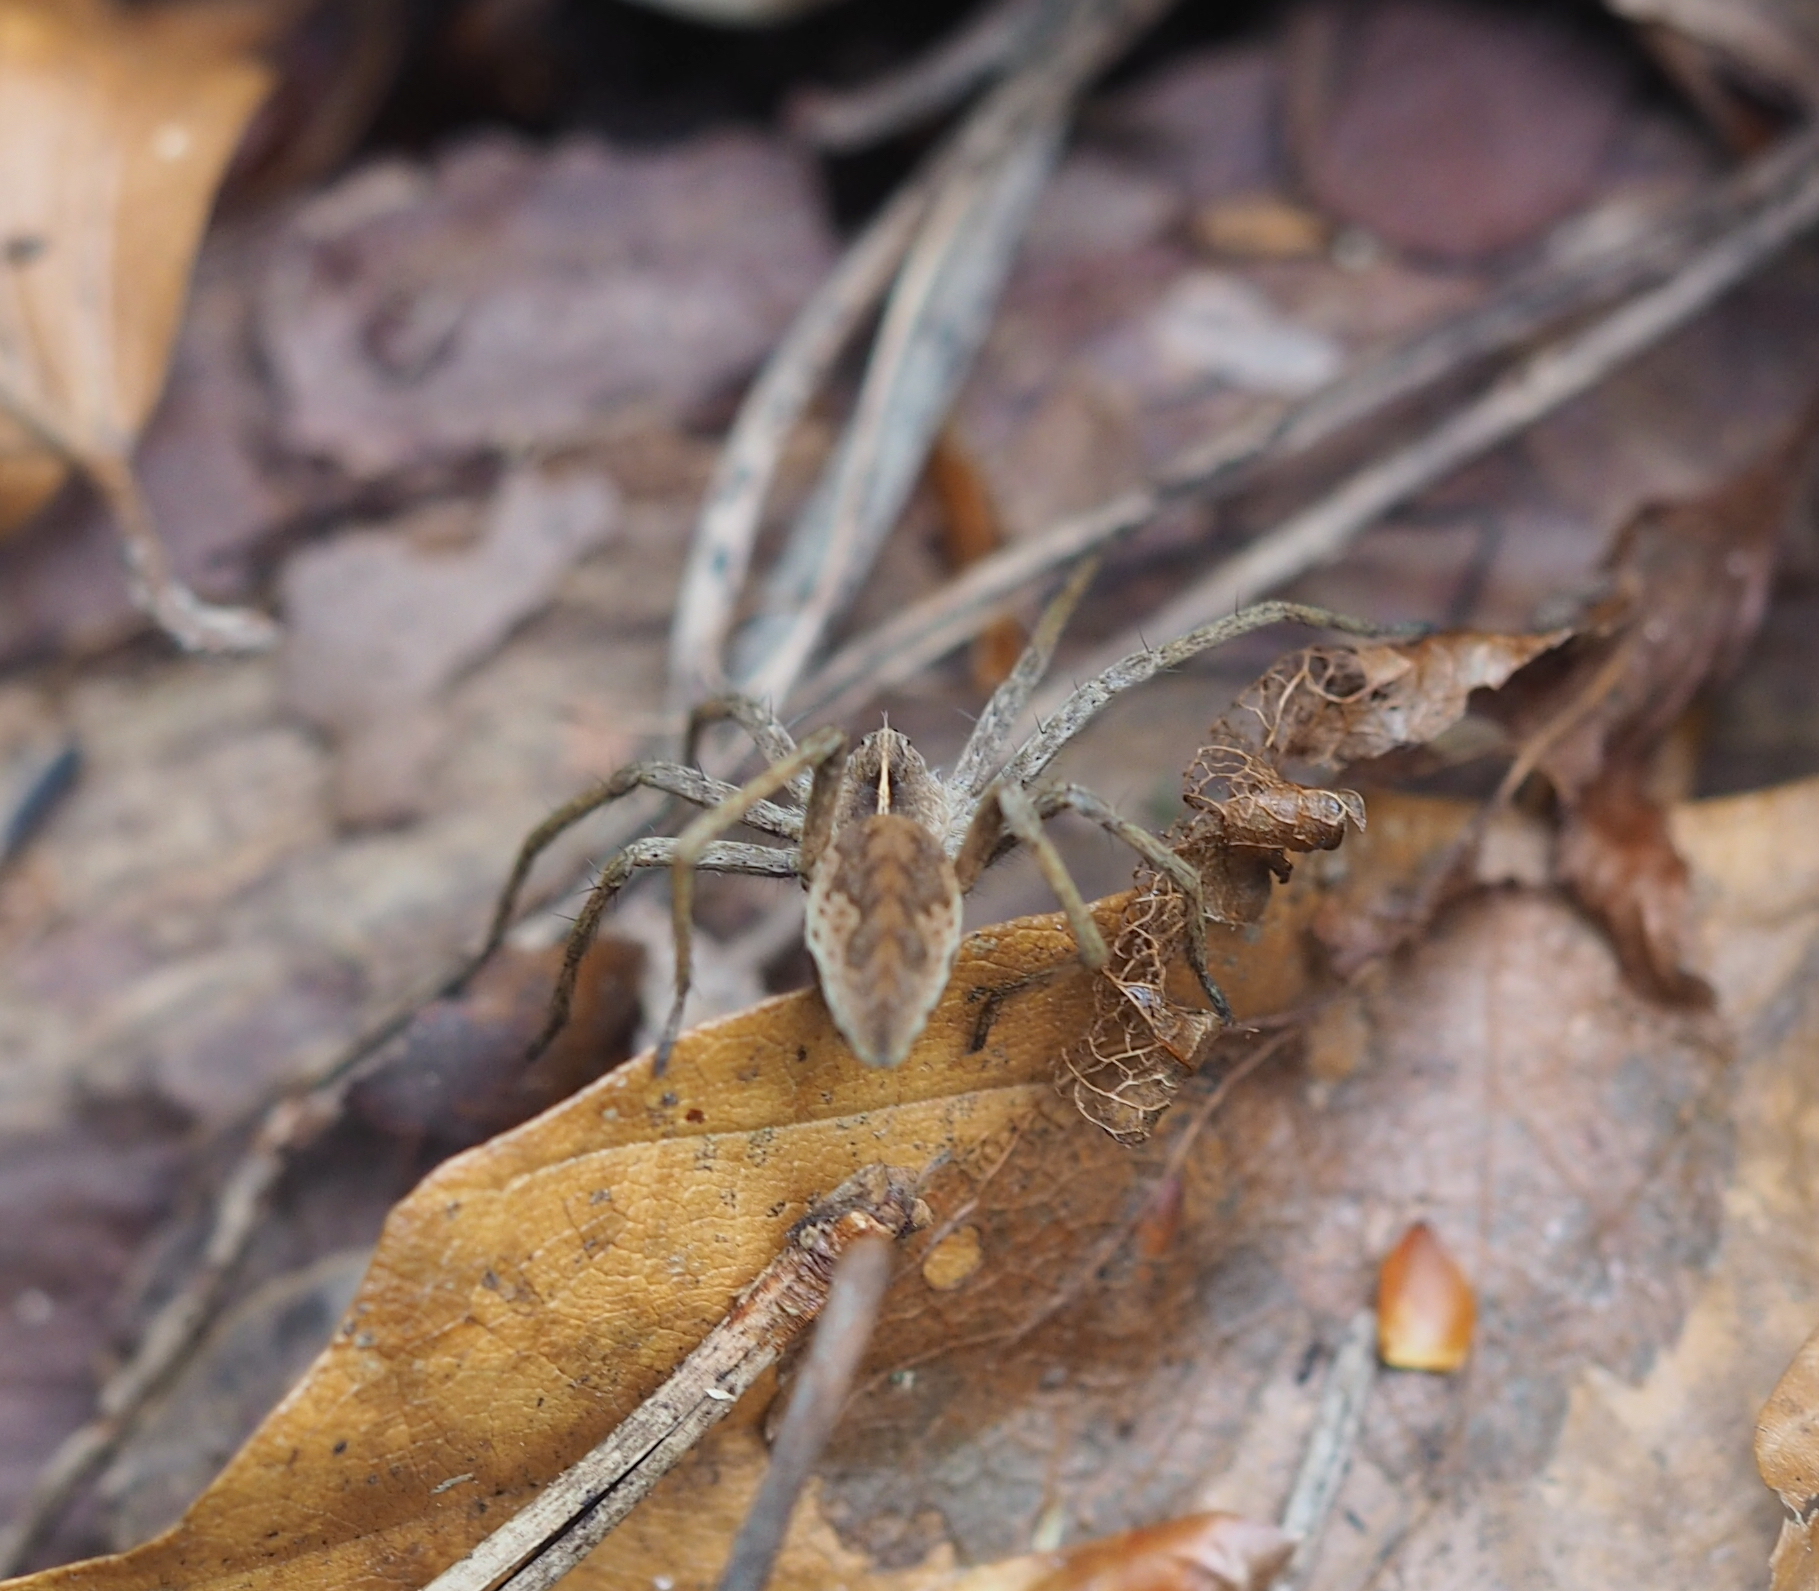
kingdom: Animalia
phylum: Arthropoda
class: Arachnida
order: Araneae
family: Pisauridae
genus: Pisaura
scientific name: Pisaura mirabilis
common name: Tent spider
